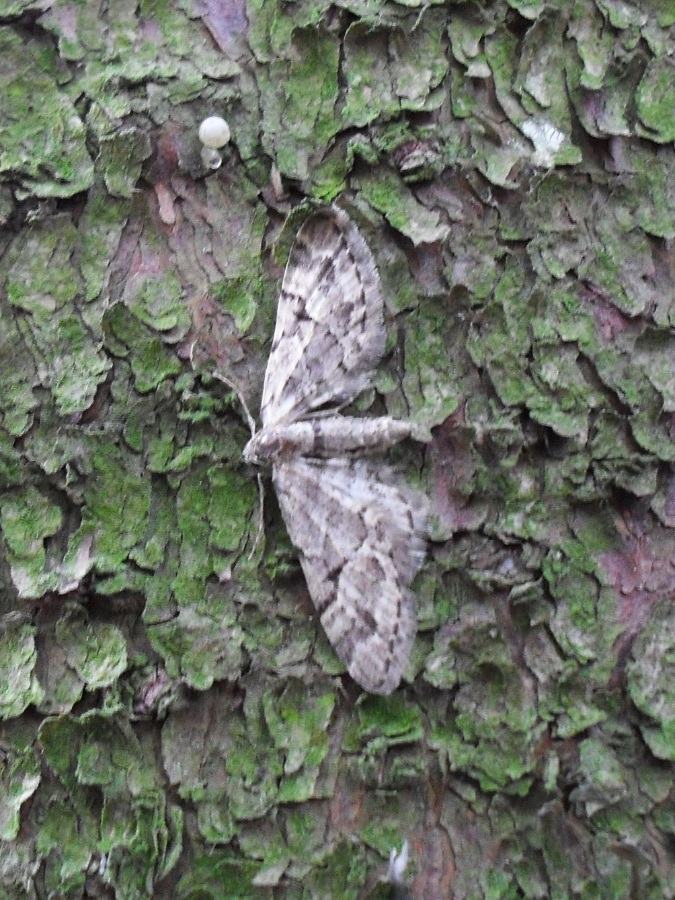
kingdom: Animalia
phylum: Arthropoda
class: Insecta
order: Lepidoptera
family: Geometridae
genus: Eupithecia
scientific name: Eupithecia lanceata
